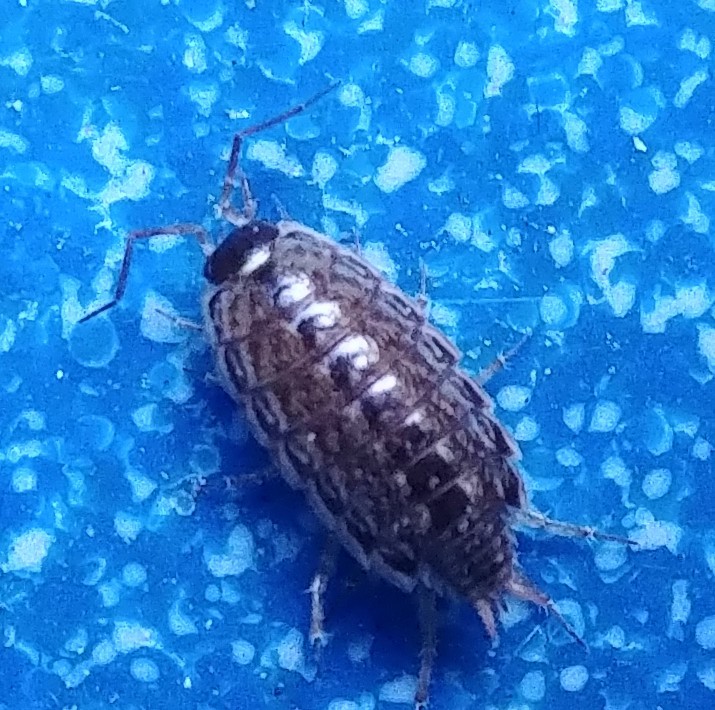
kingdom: Animalia
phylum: Arthropoda
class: Malacostraca
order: Isopoda
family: Philosciidae
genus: Philoscia
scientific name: Philoscia muscorum
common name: Common striped woodlouse
